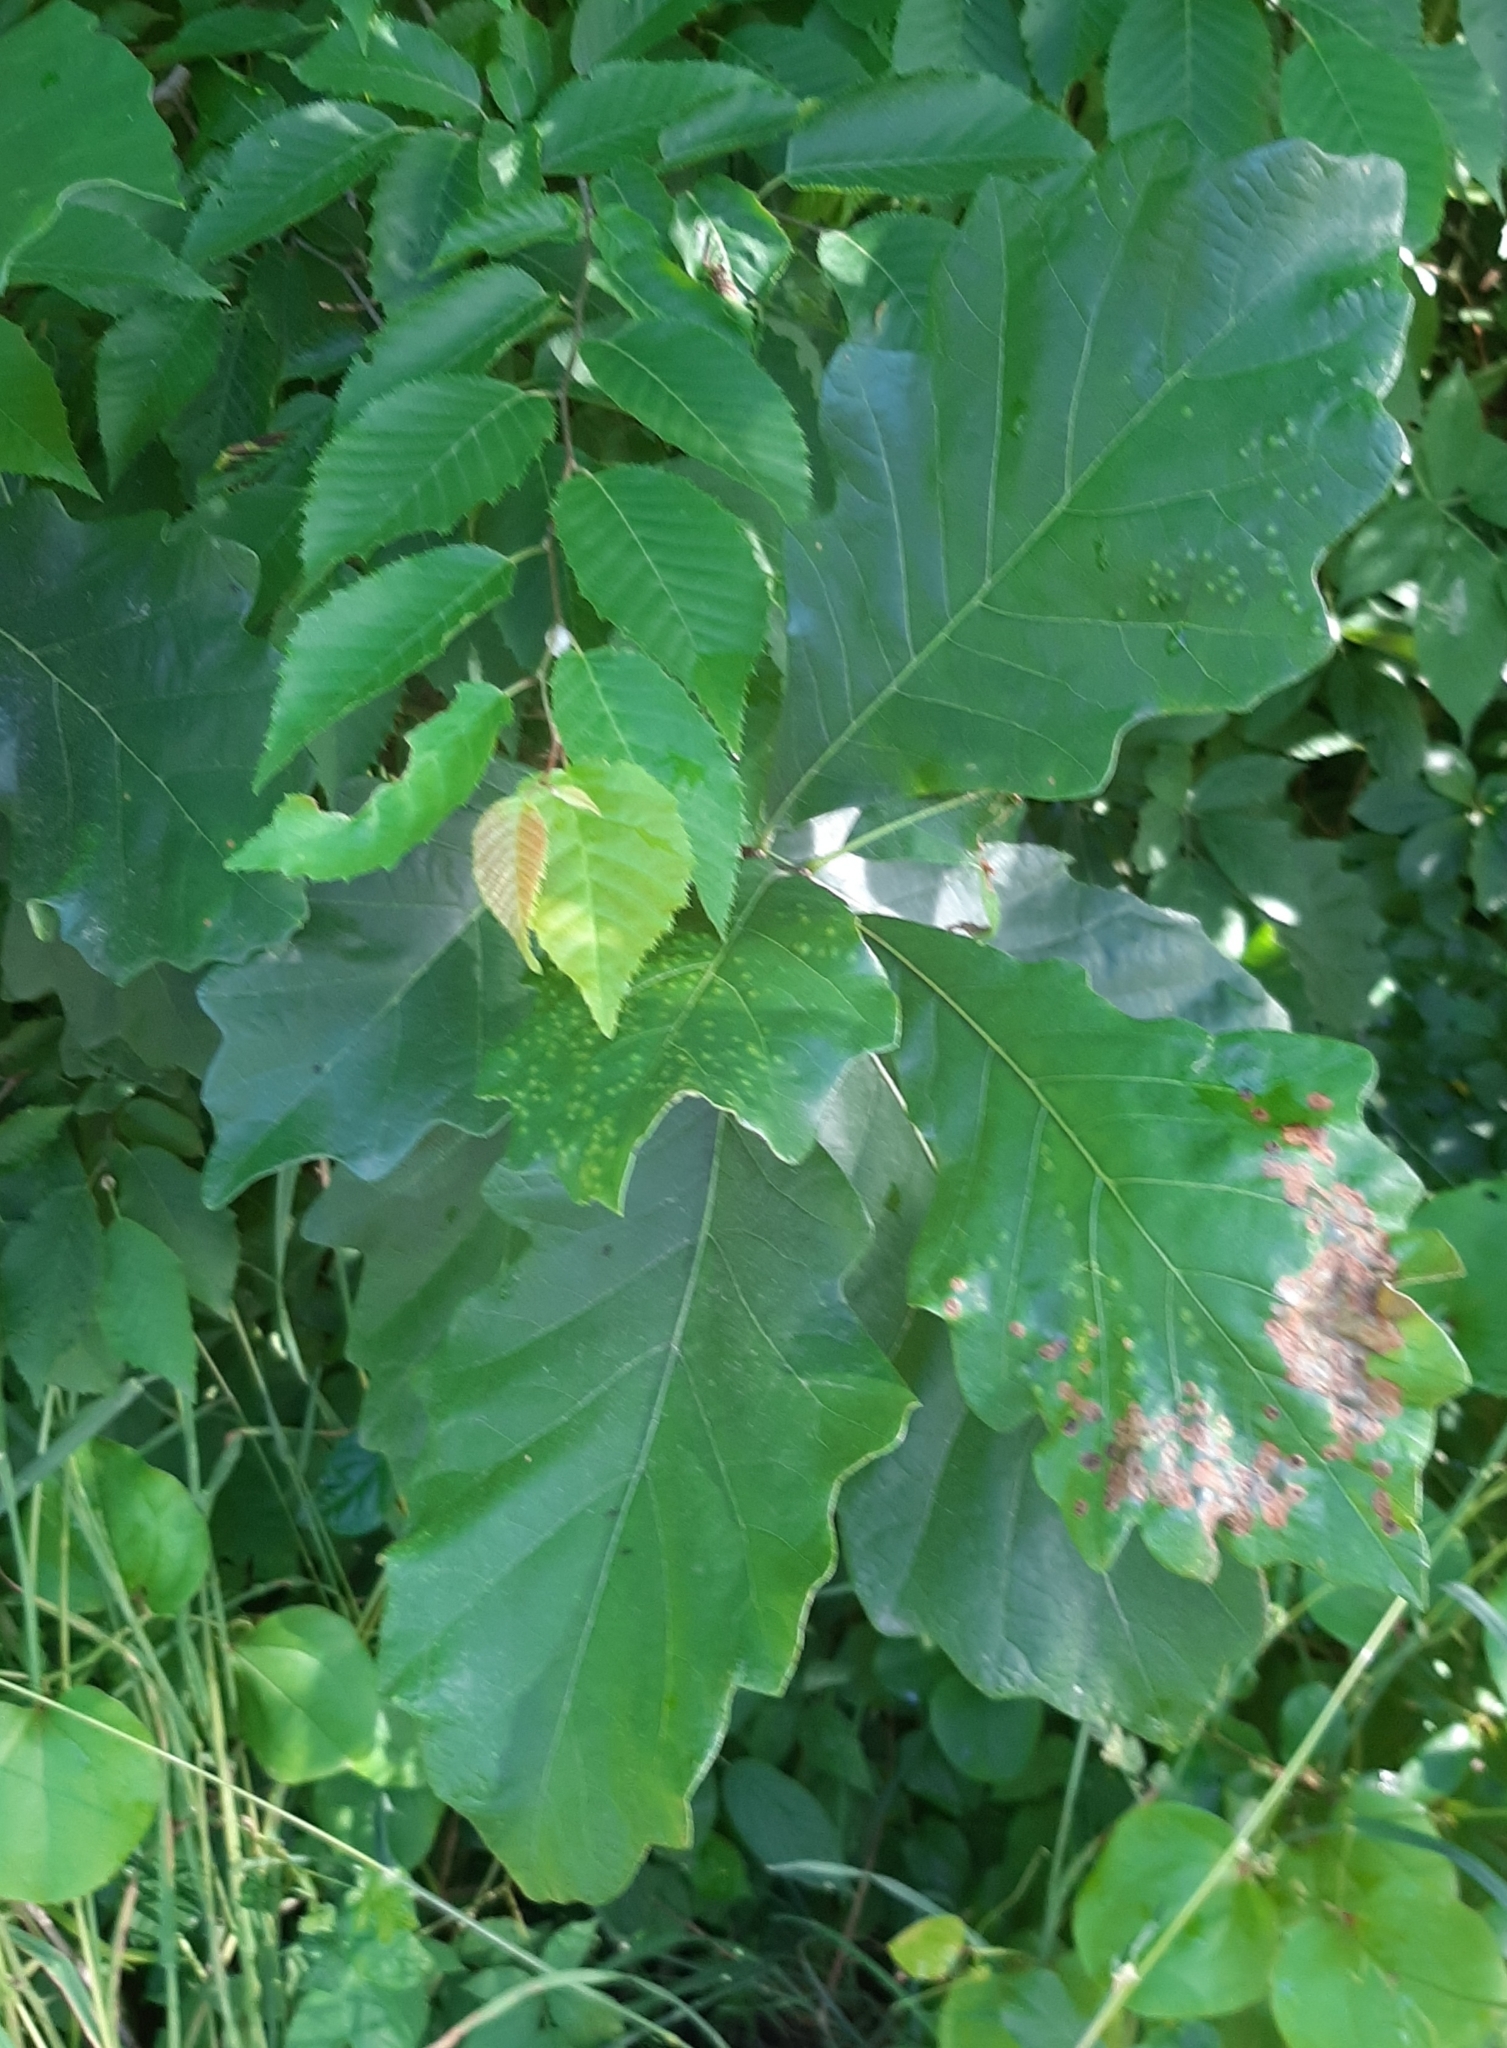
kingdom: Animalia
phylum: Arthropoda
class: Insecta
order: Hymenoptera
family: Cynipidae
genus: Neuroterus
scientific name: Neuroterus
